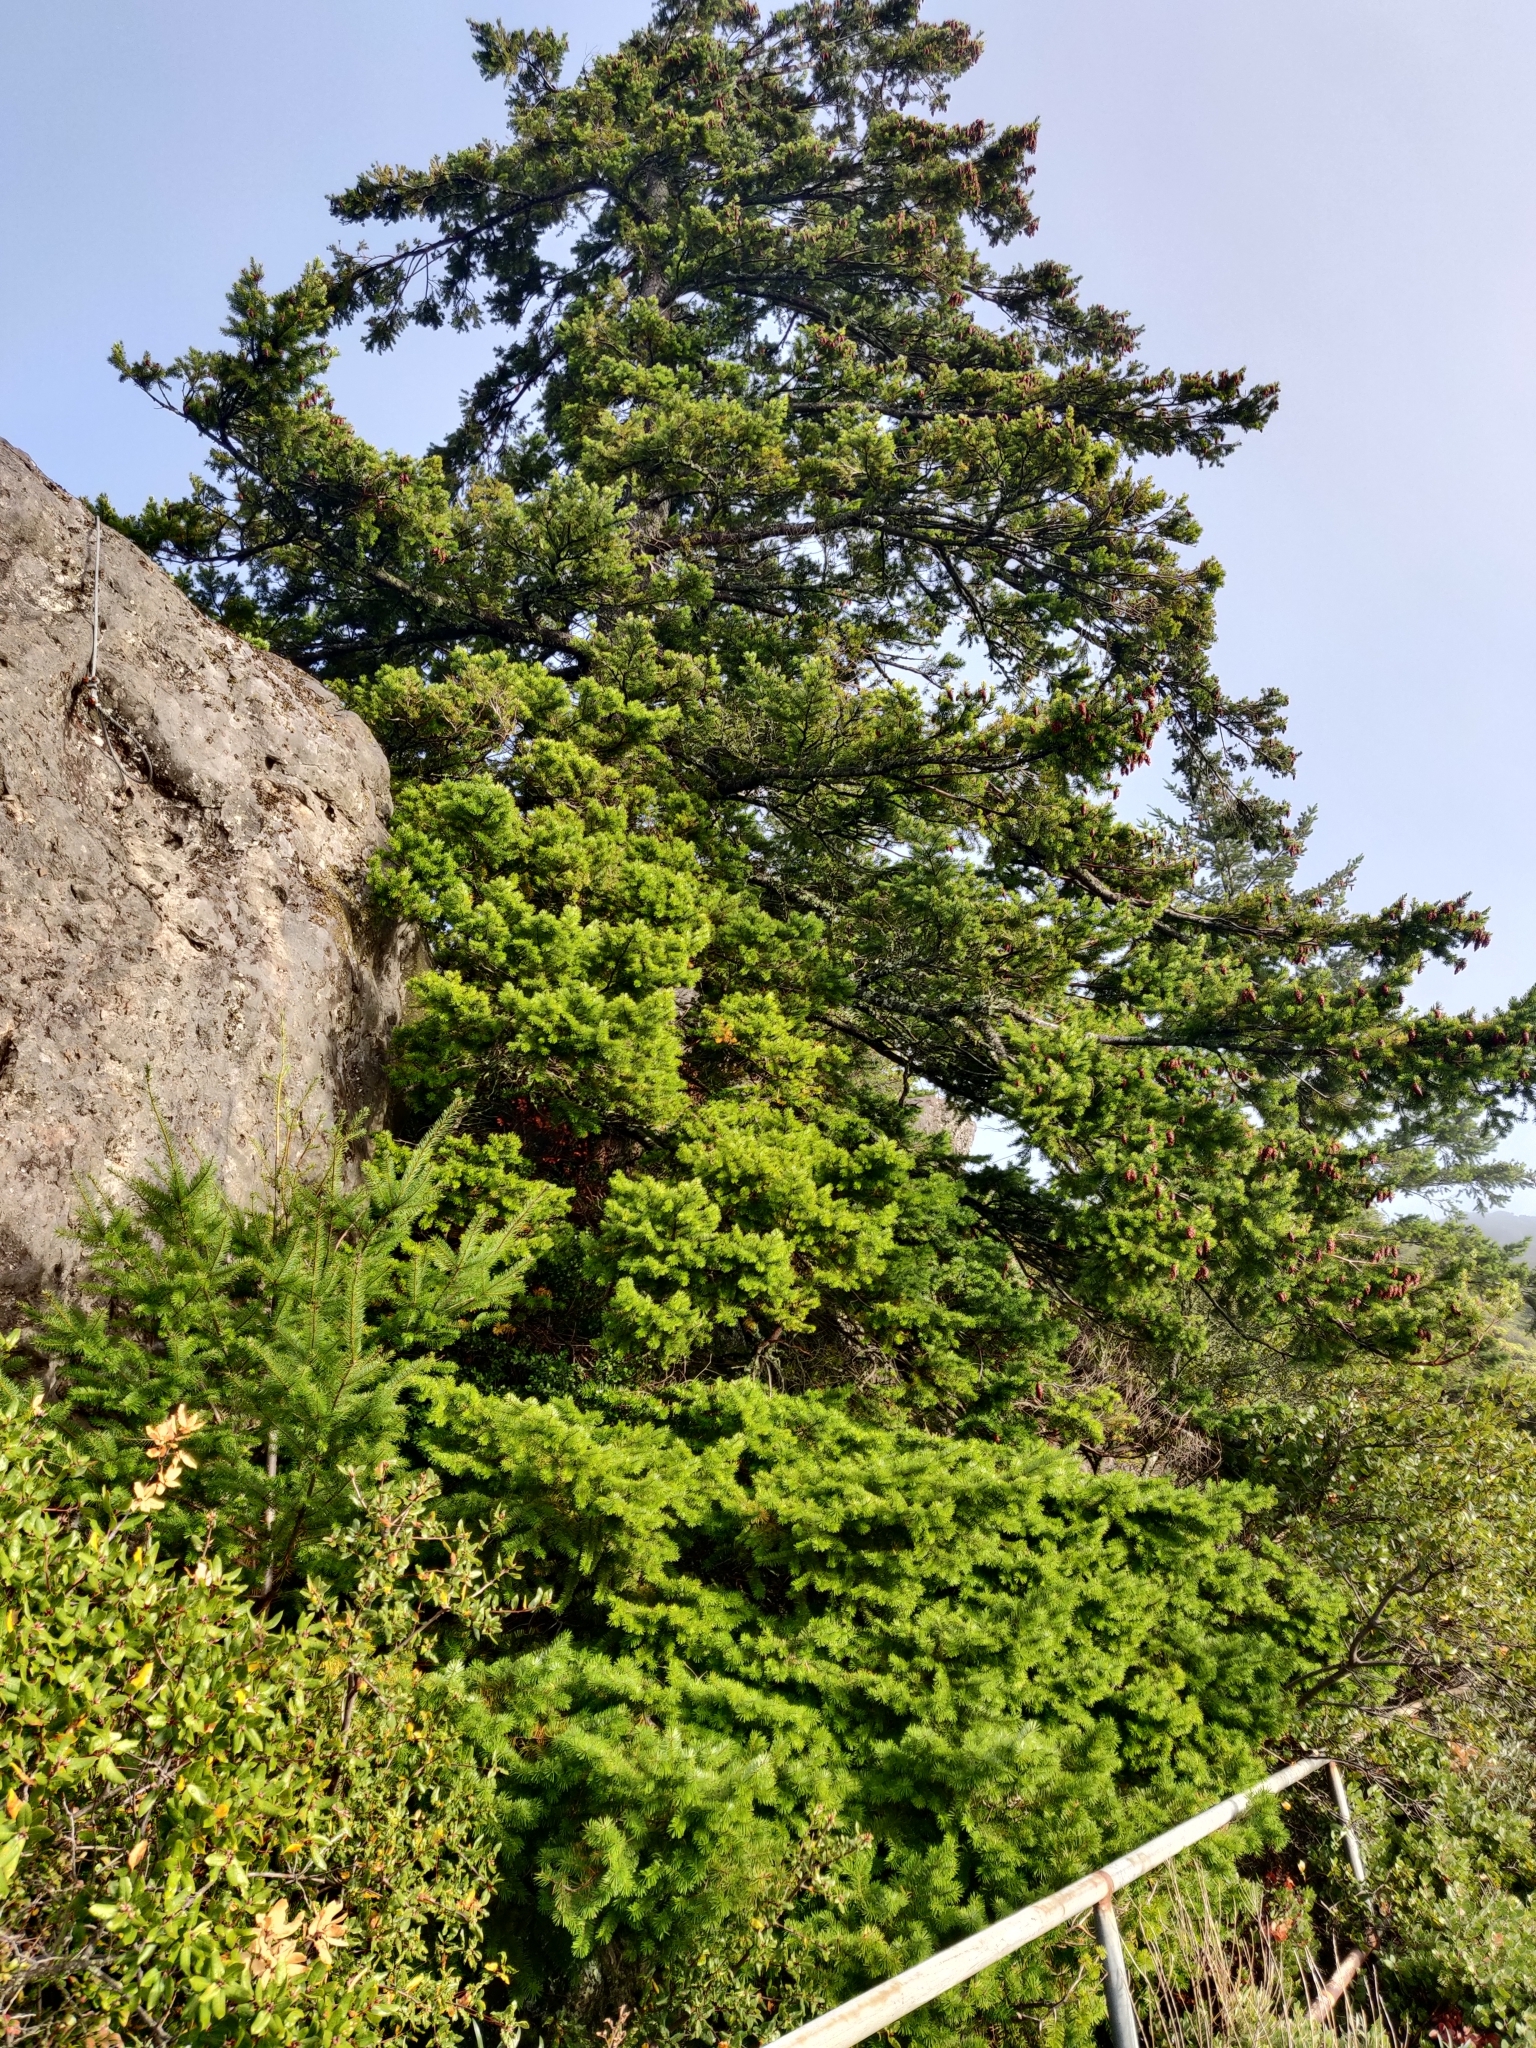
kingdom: Plantae
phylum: Tracheophyta
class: Pinopsida
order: Pinales
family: Pinaceae
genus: Pseudotsuga
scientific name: Pseudotsuga menziesii
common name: Douglas fir
